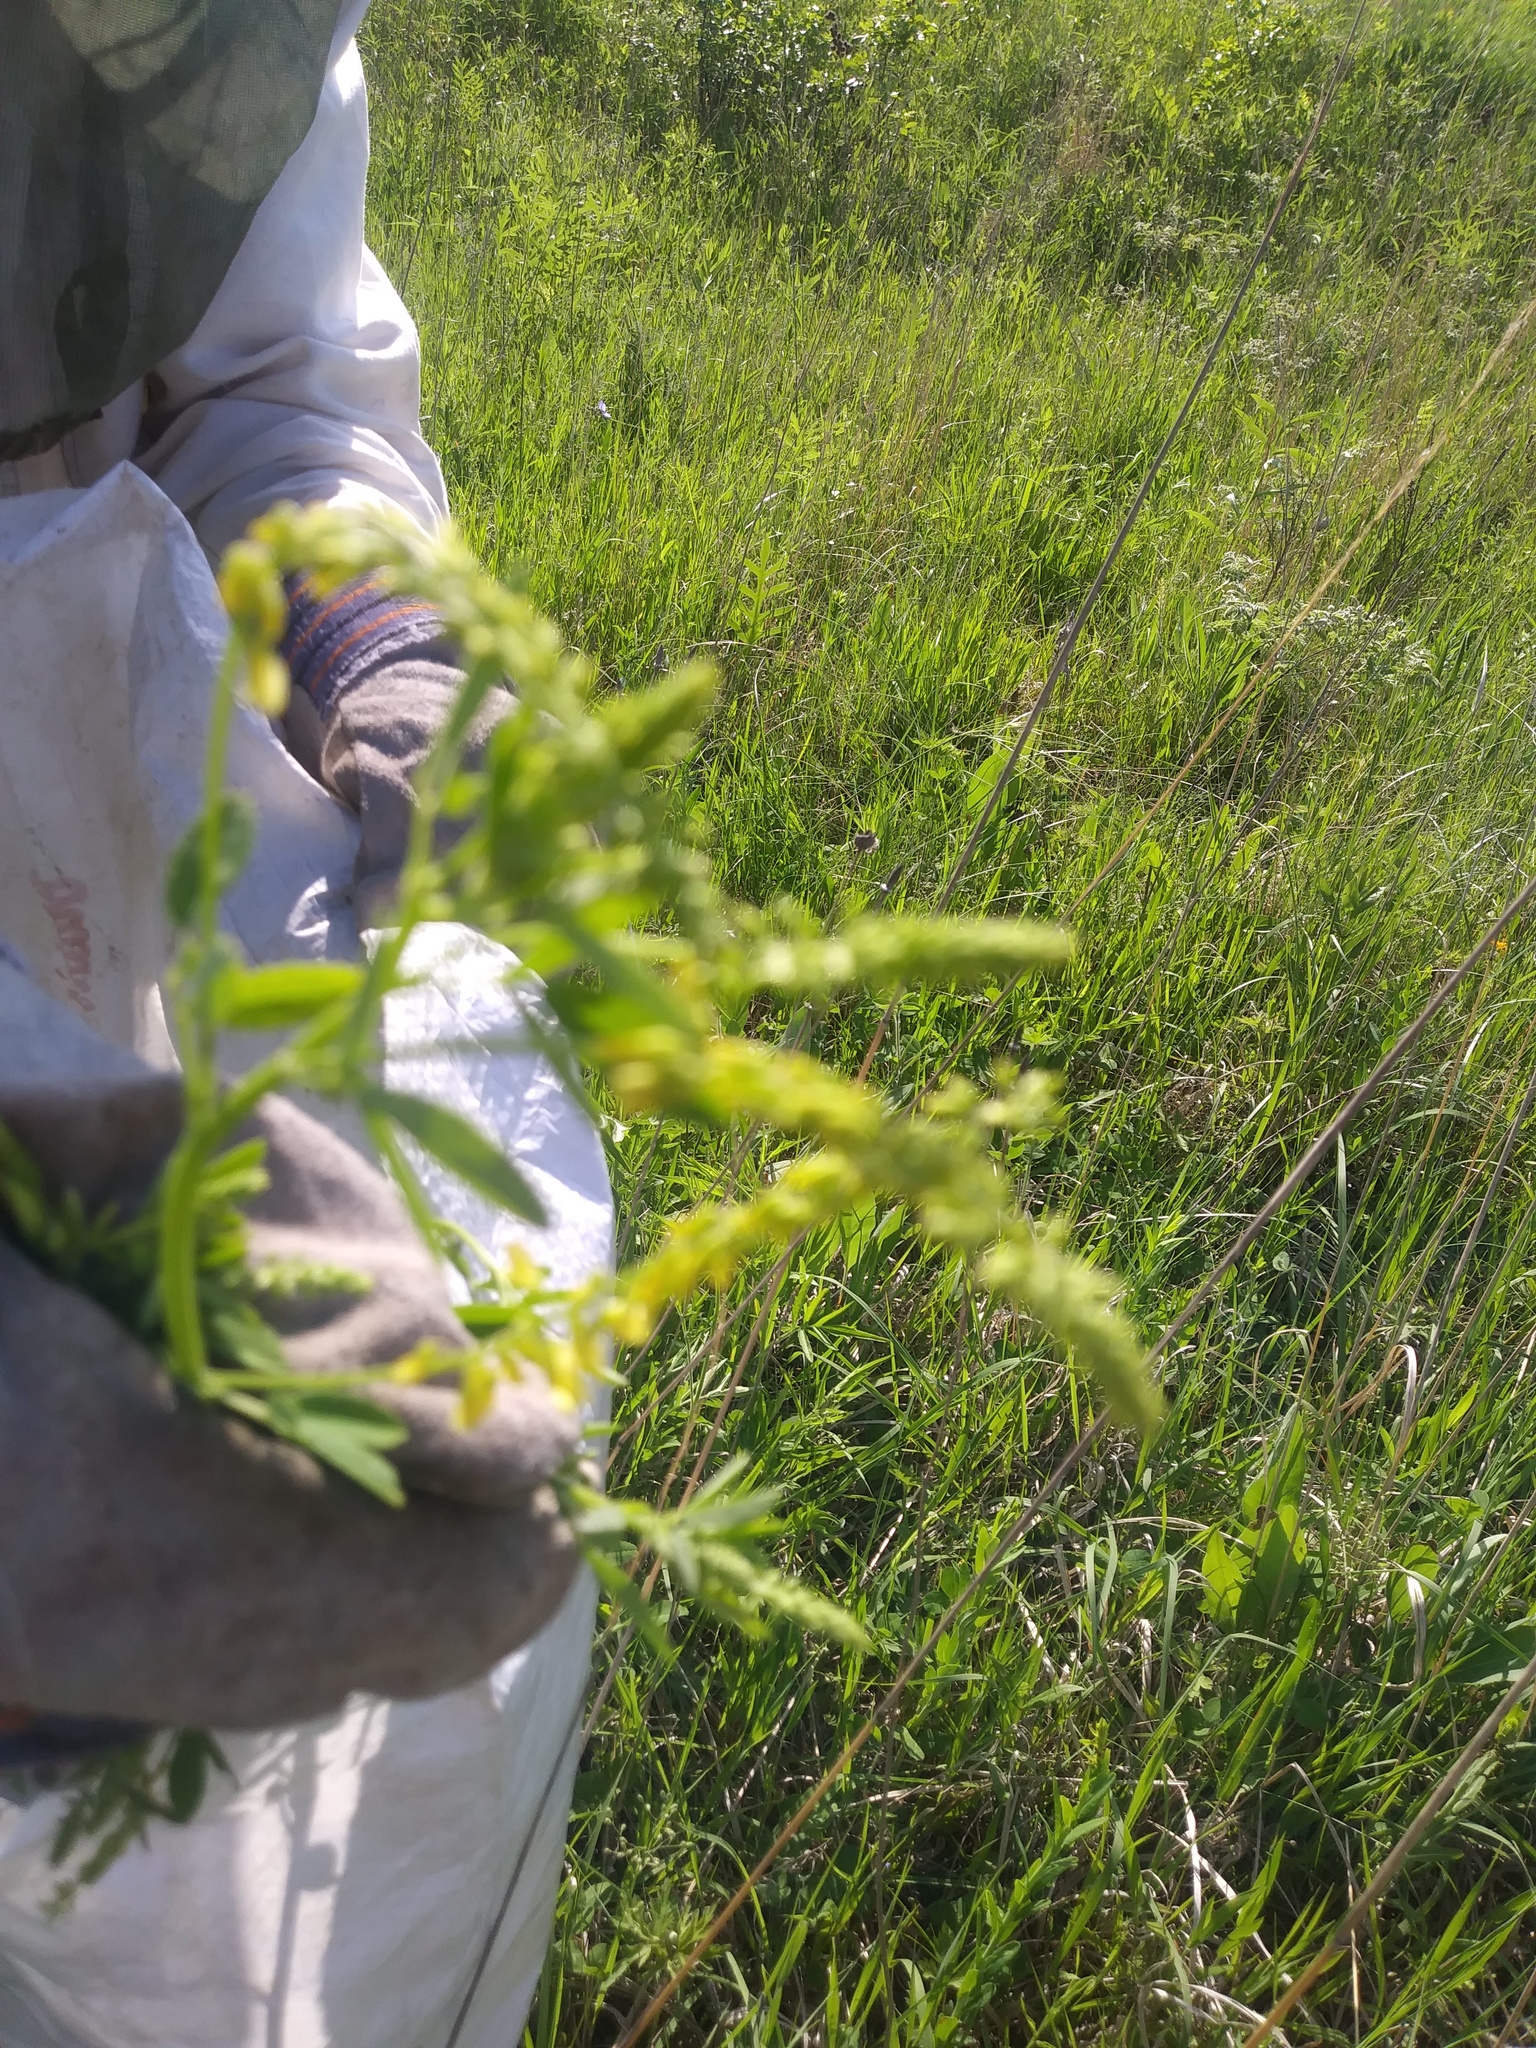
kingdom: Plantae
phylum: Tracheophyta
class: Magnoliopsida
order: Fabales
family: Fabaceae
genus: Melilotus
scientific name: Melilotus officinalis
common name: Sweetclover
